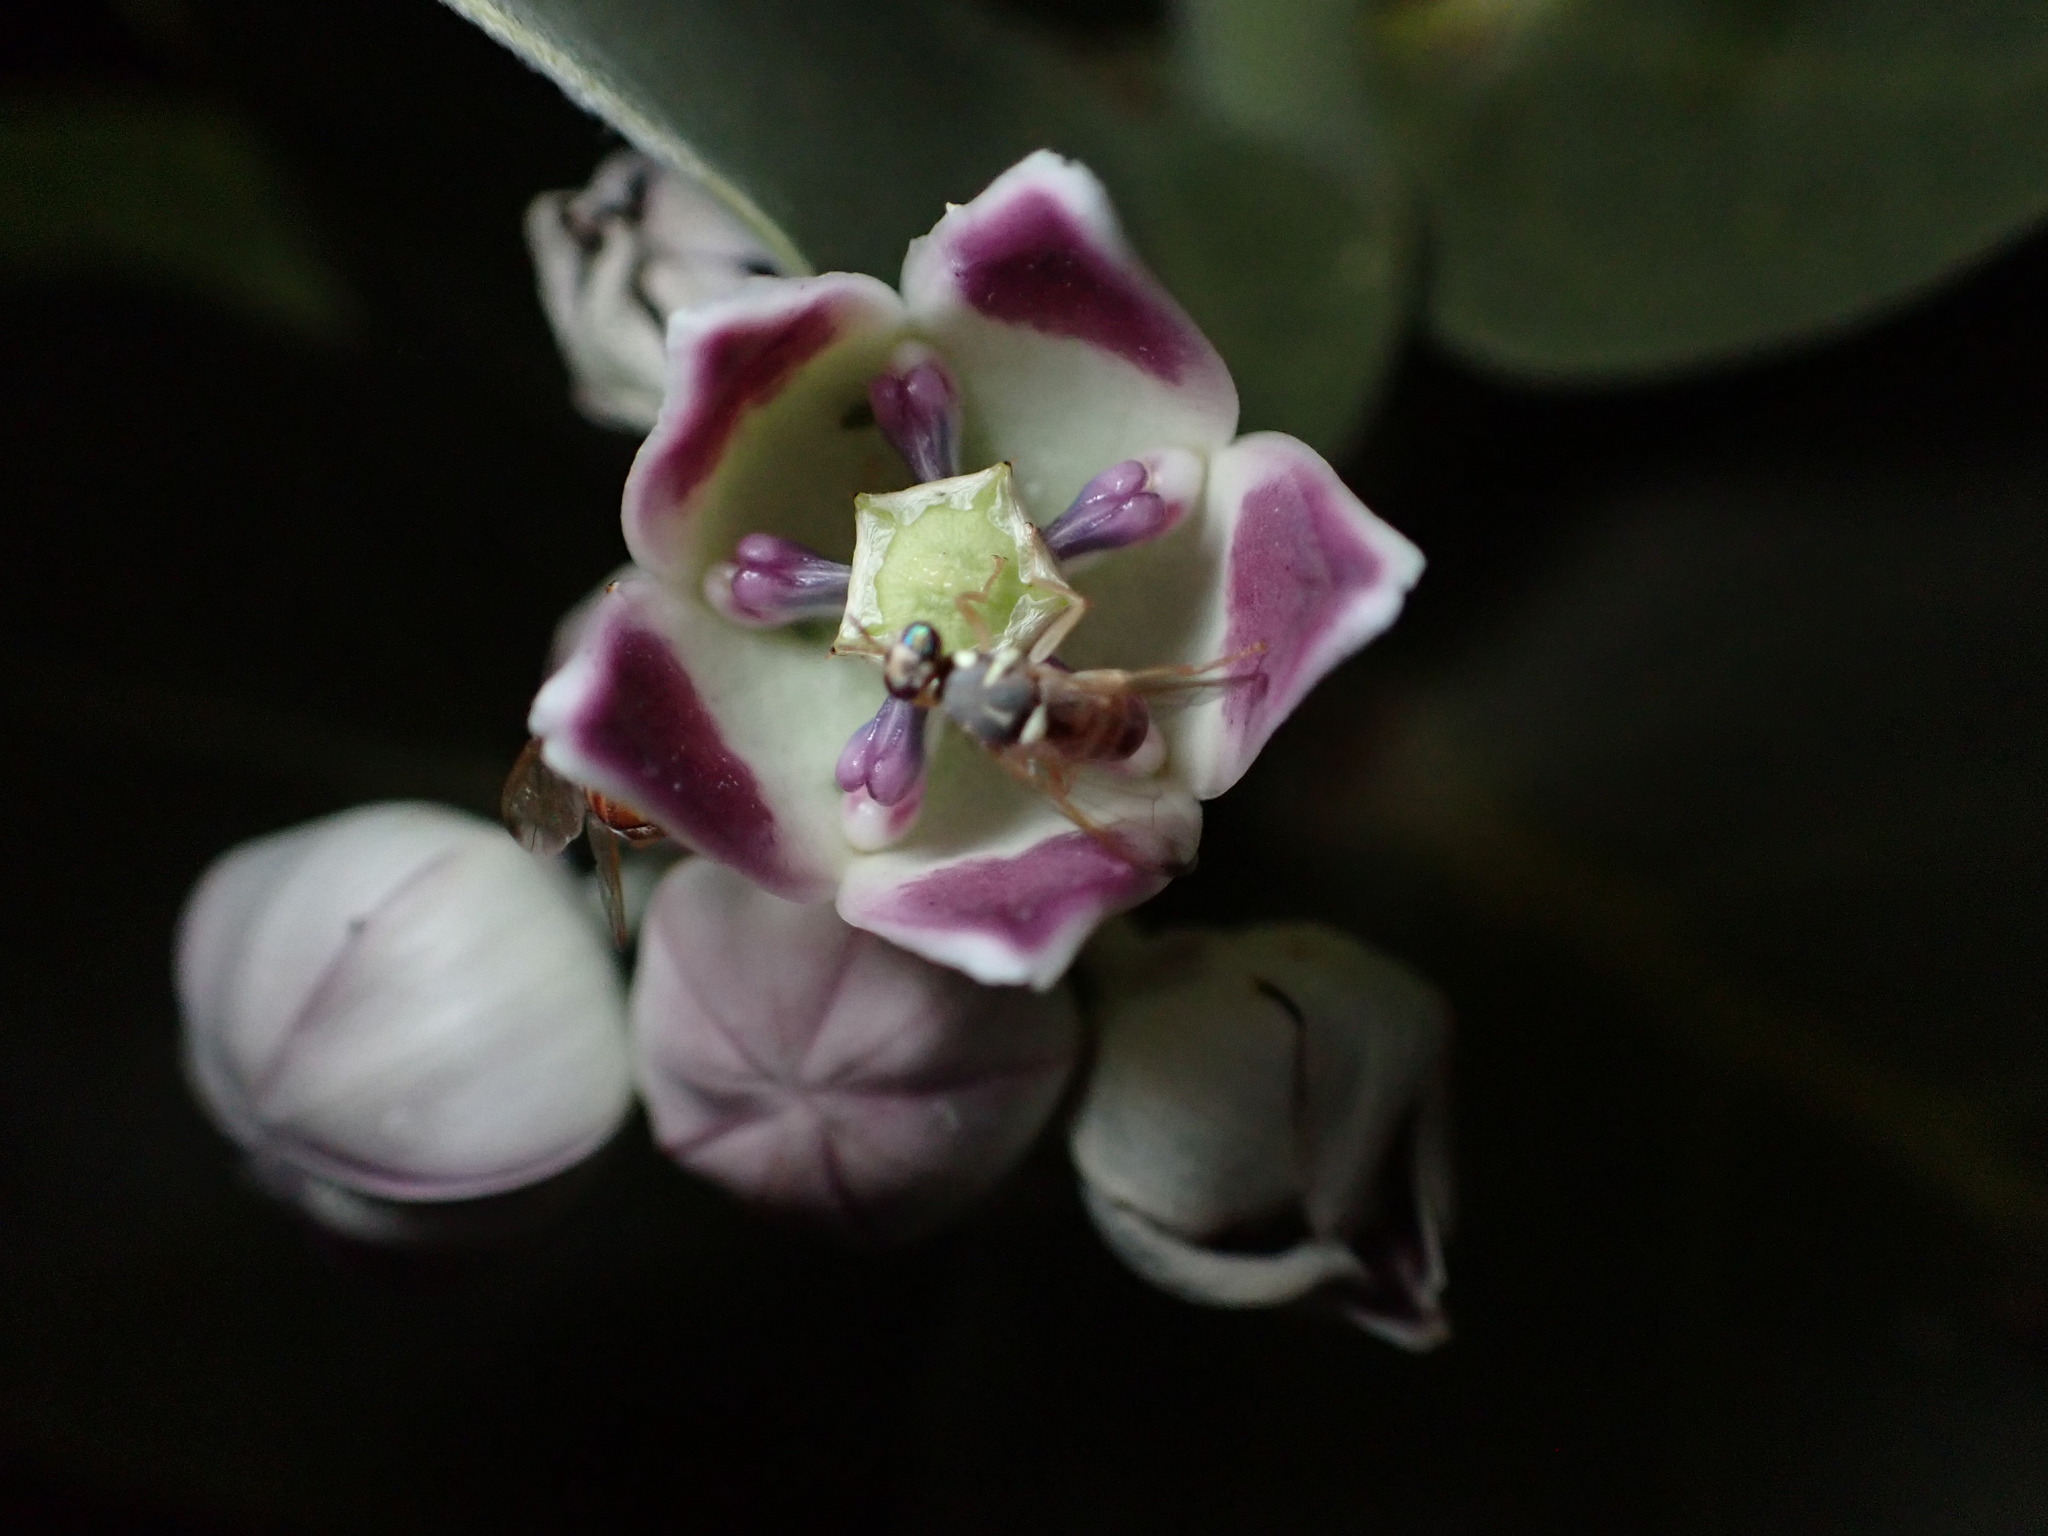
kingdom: Plantae
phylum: Tracheophyta
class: Magnoliopsida
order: Gentianales
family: Apocynaceae
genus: Calotropis
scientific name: Calotropis procera
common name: Roostertree
